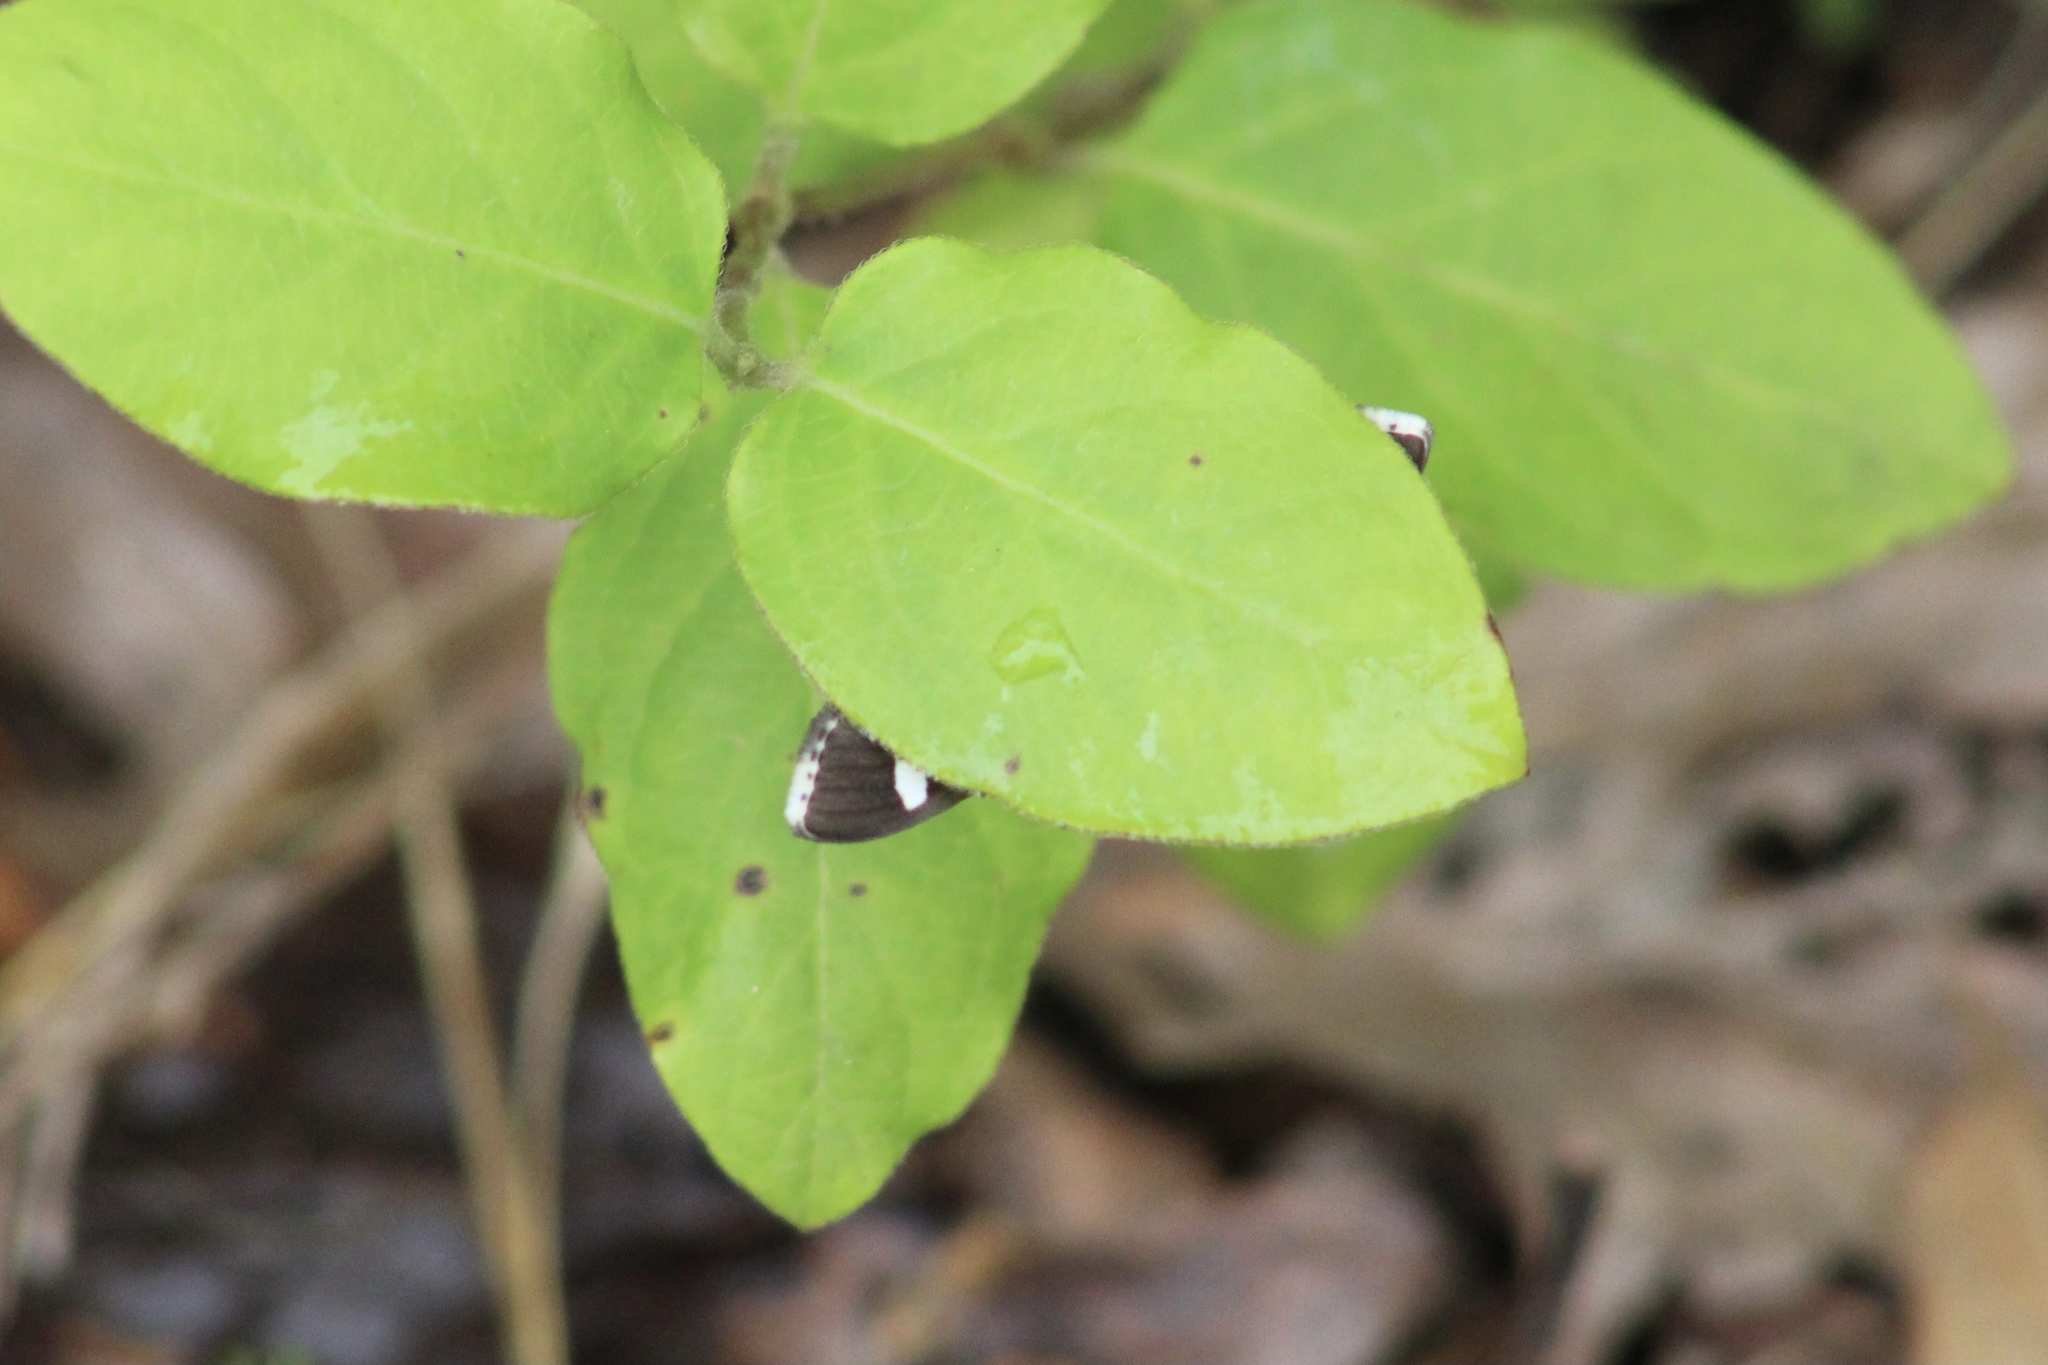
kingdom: Animalia
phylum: Arthropoda
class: Insecta
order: Lepidoptera
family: Crambidae
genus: Desmia
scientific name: Desmia
